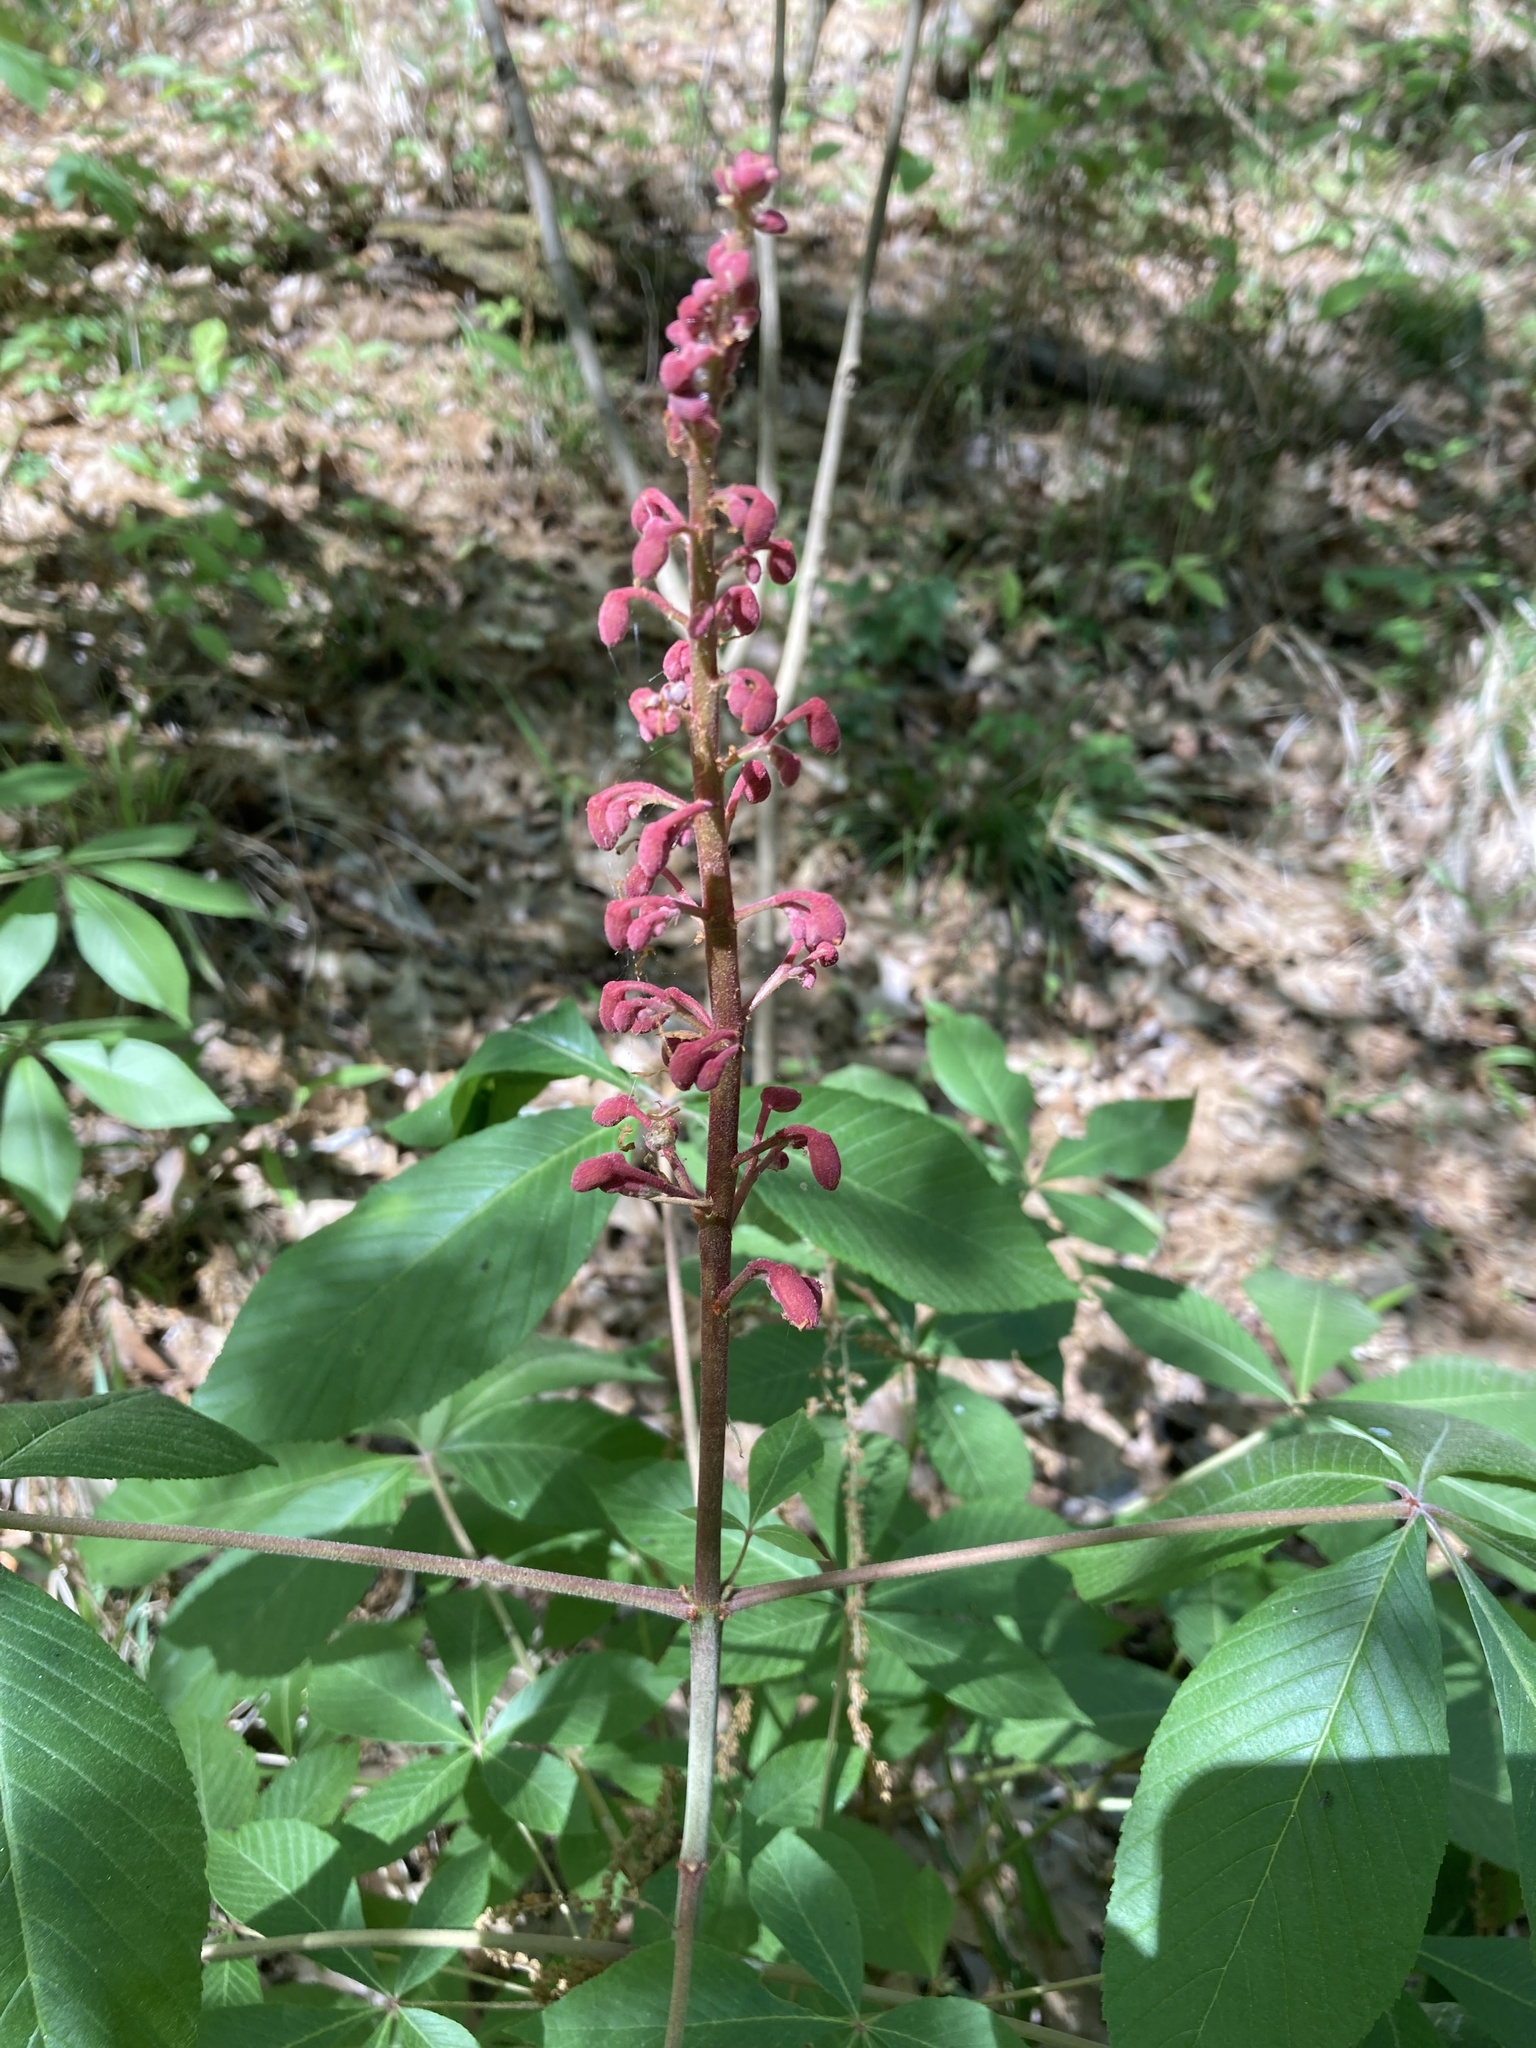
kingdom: Plantae
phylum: Tracheophyta
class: Magnoliopsida
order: Sapindales
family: Sapindaceae
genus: Aesculus
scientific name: Aesculus pavia
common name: Red buckeye
